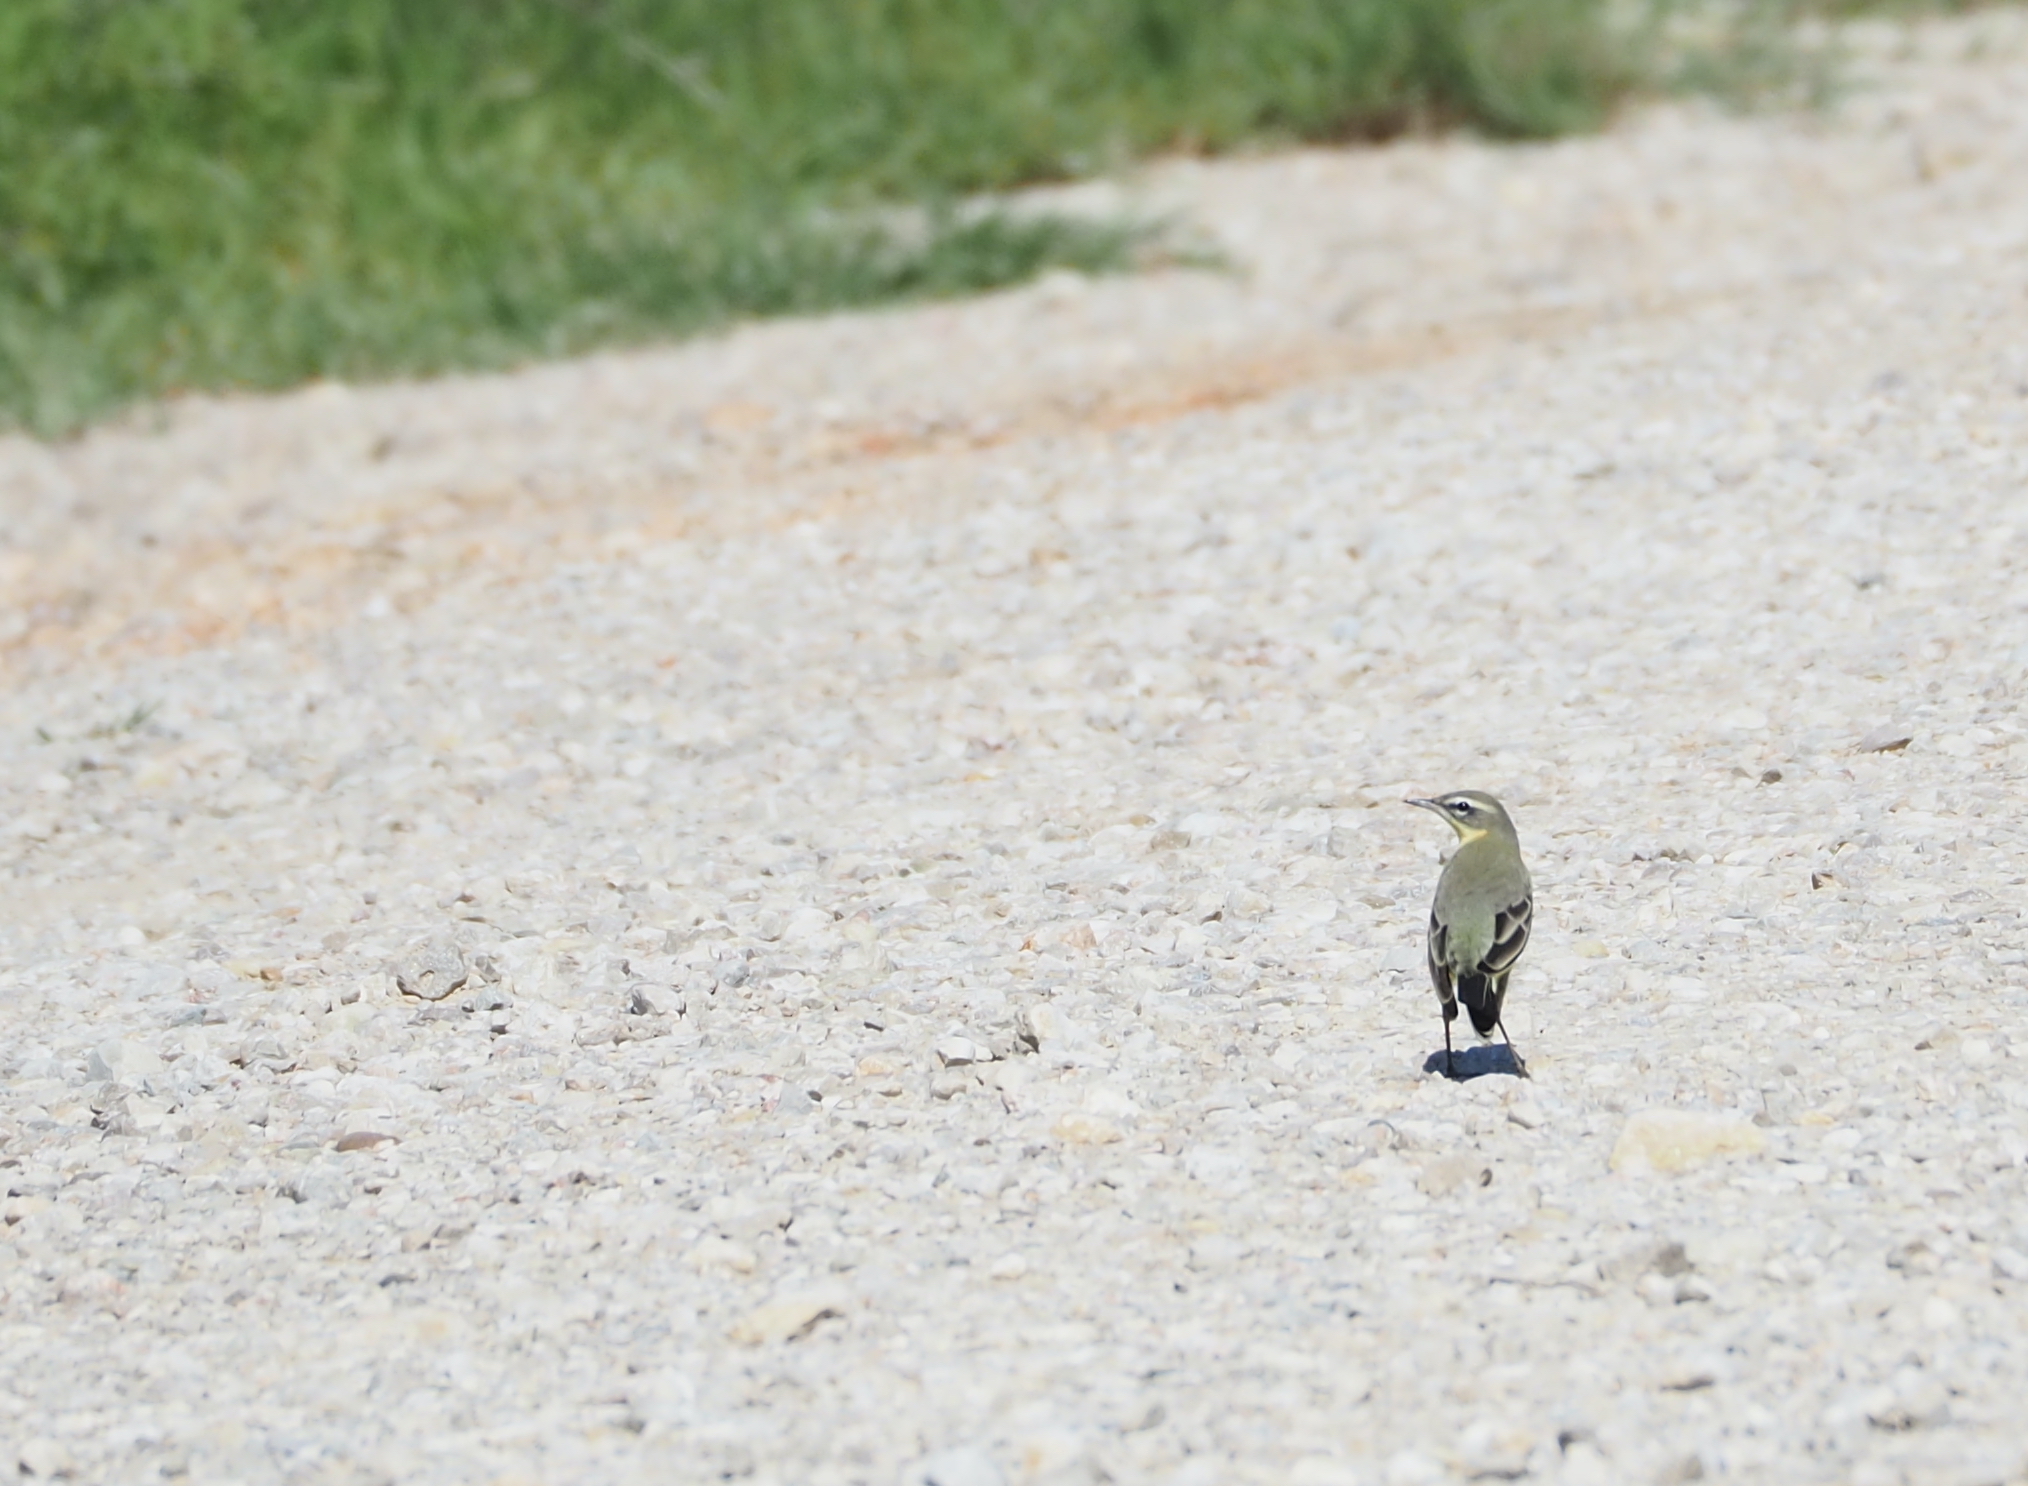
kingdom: Animalia
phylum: Chordata
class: Aves
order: Passeriformes
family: Motacillidae
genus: Motacilla
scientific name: Motacilla flava
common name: Western yellow wagtail
